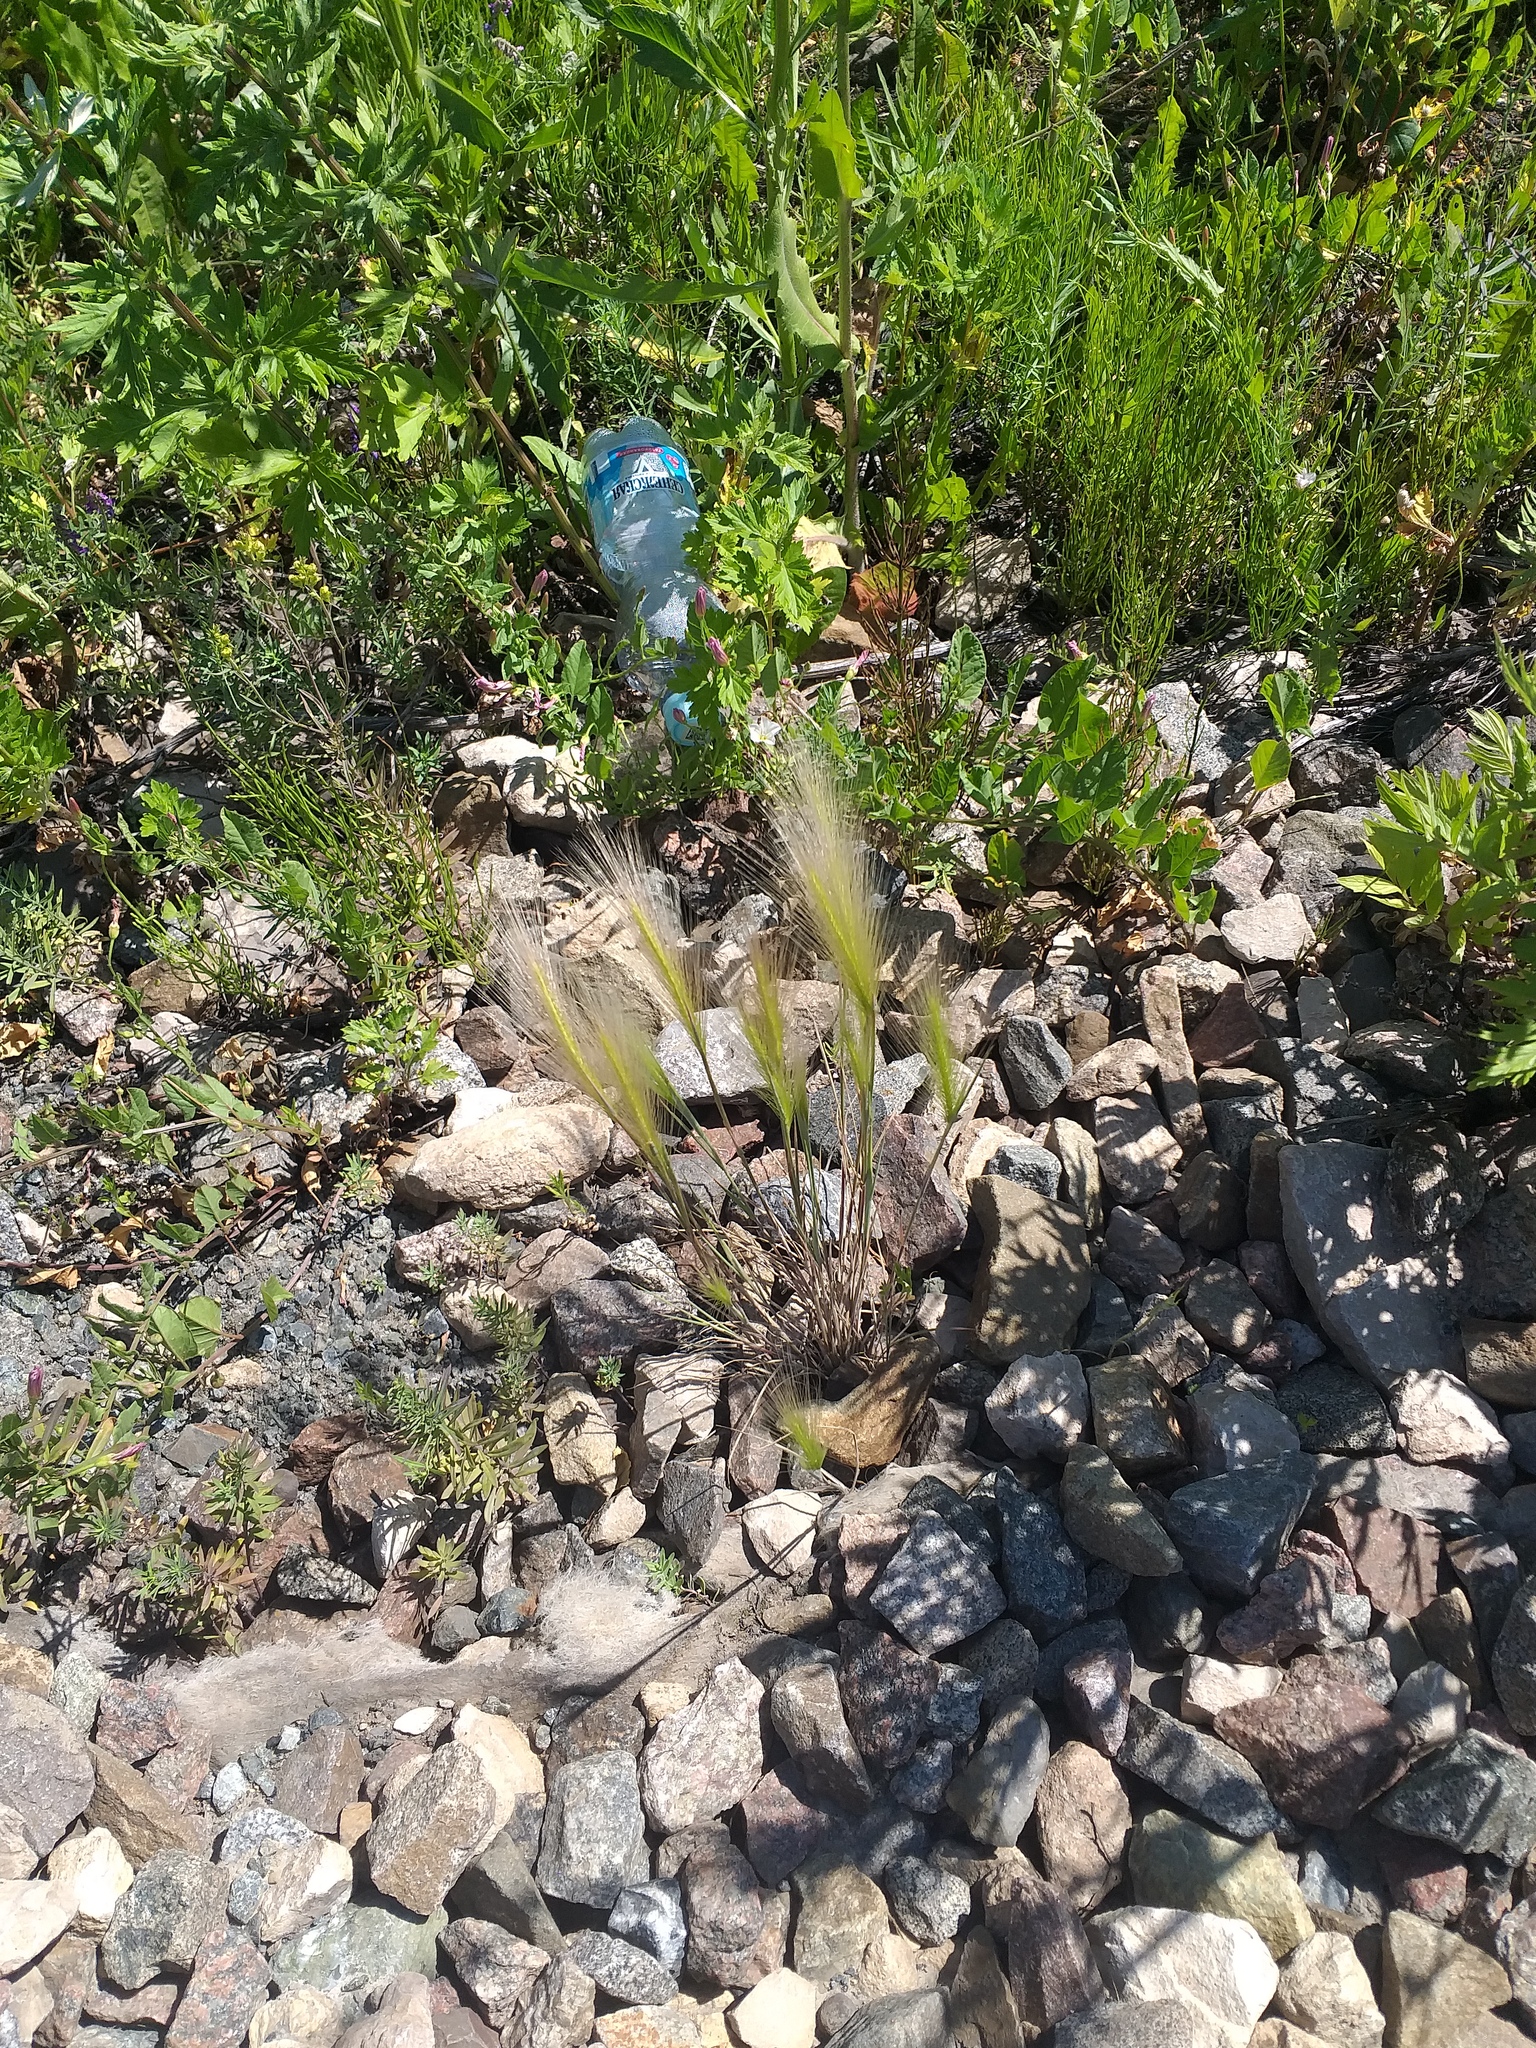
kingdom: Plantae
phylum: Tracheophyta
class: Liliopsida
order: Poales
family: Poaceae
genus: Hordeum
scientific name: Hordeum jubatum
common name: Foxtail barley
